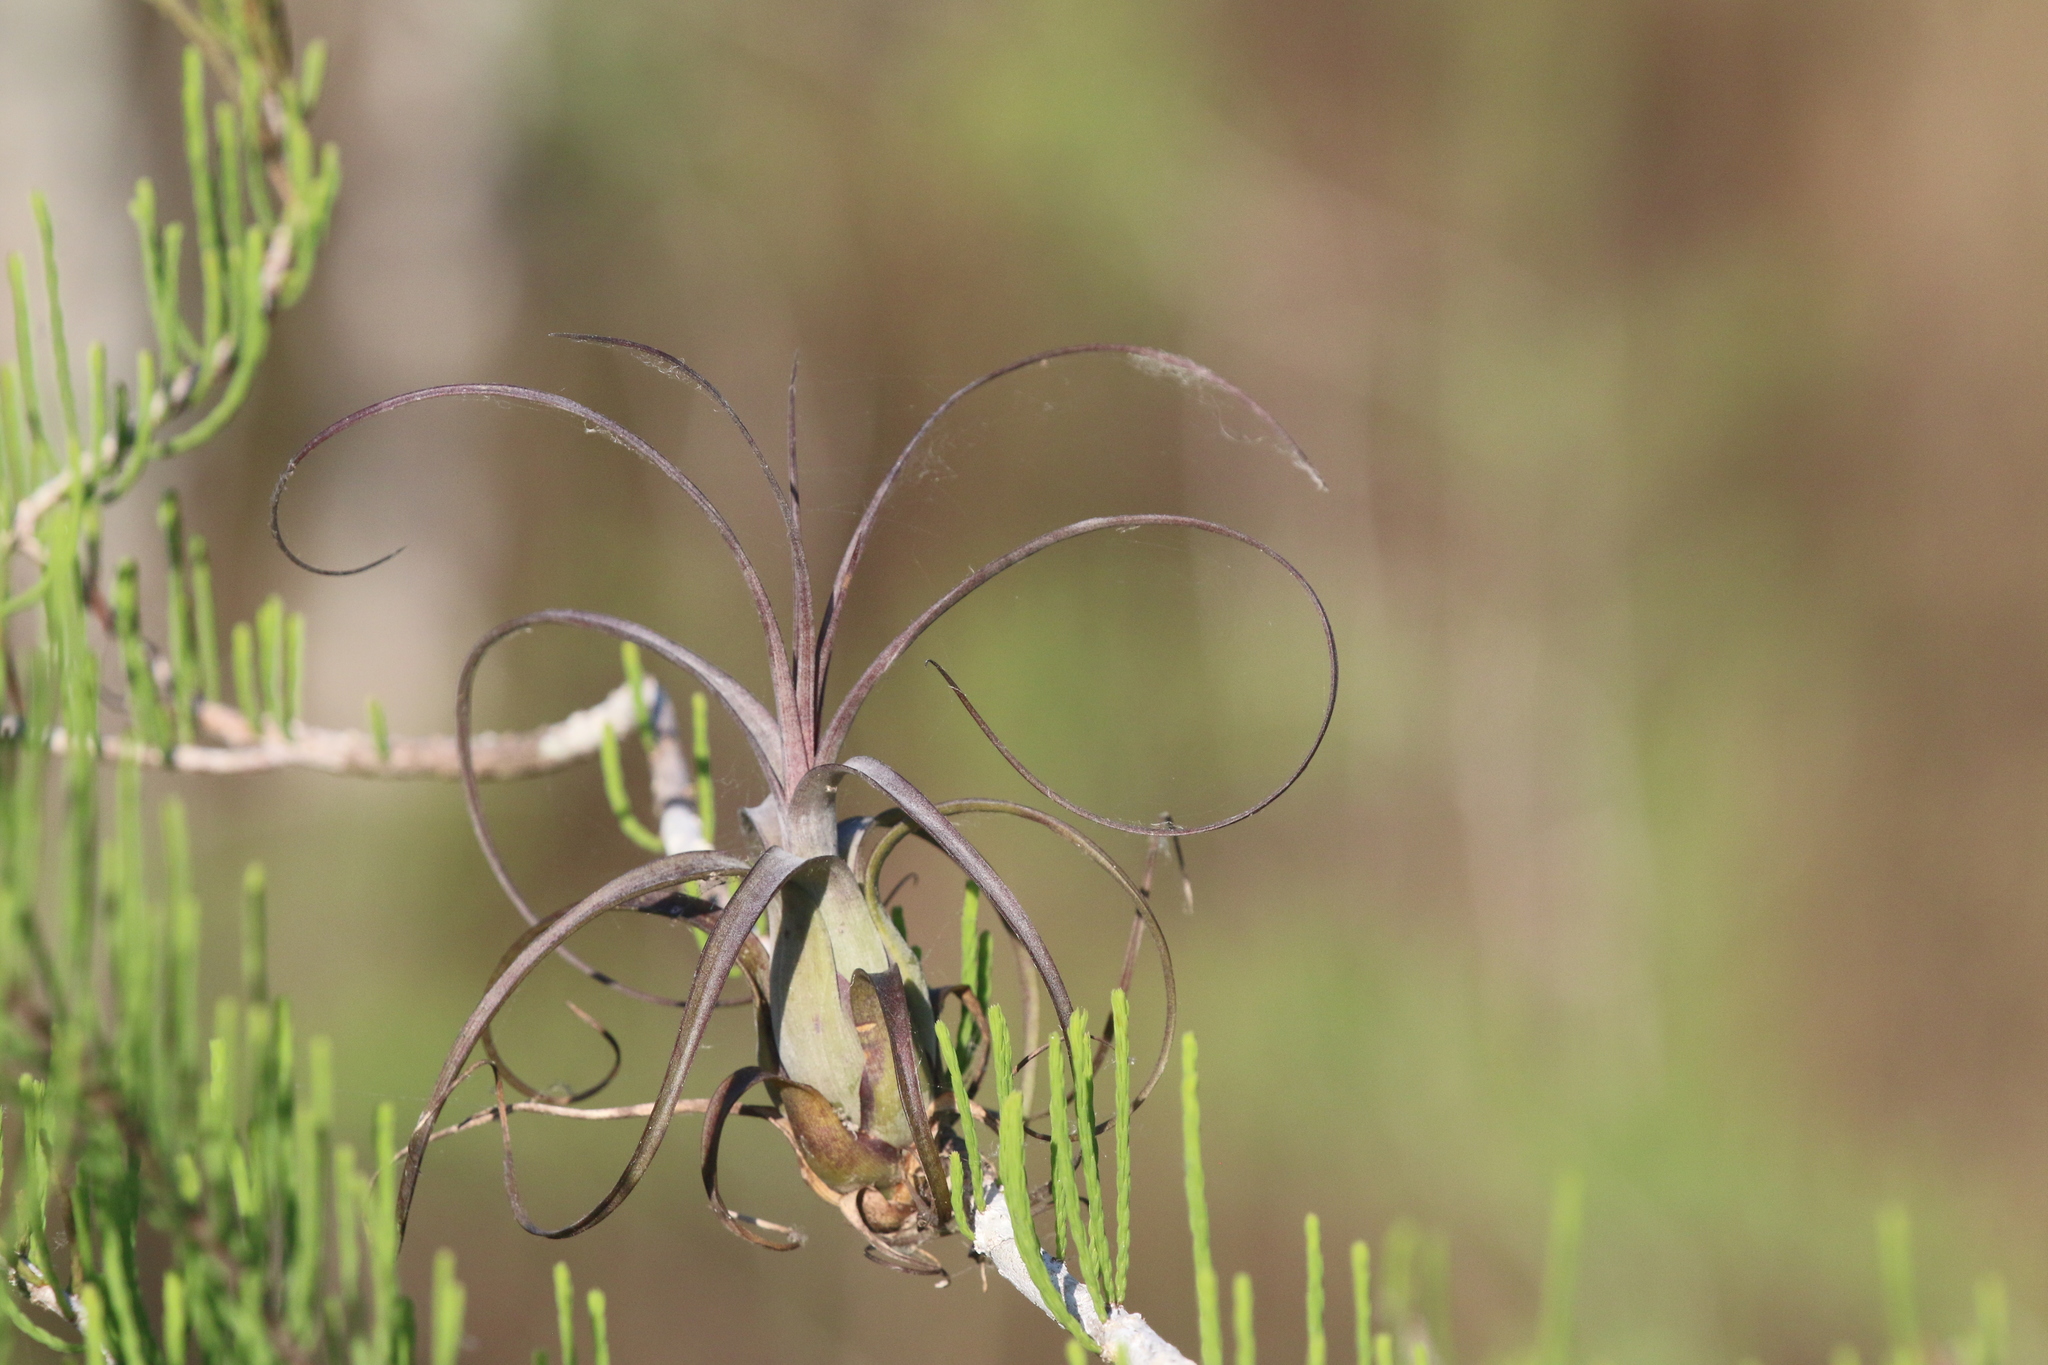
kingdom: Plantae
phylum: Tracheophyta
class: Liliopsida
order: Poales
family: Bromeliaceae
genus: Tillandsia
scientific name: Tillandsia balbisiana
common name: Northern needleleaf
